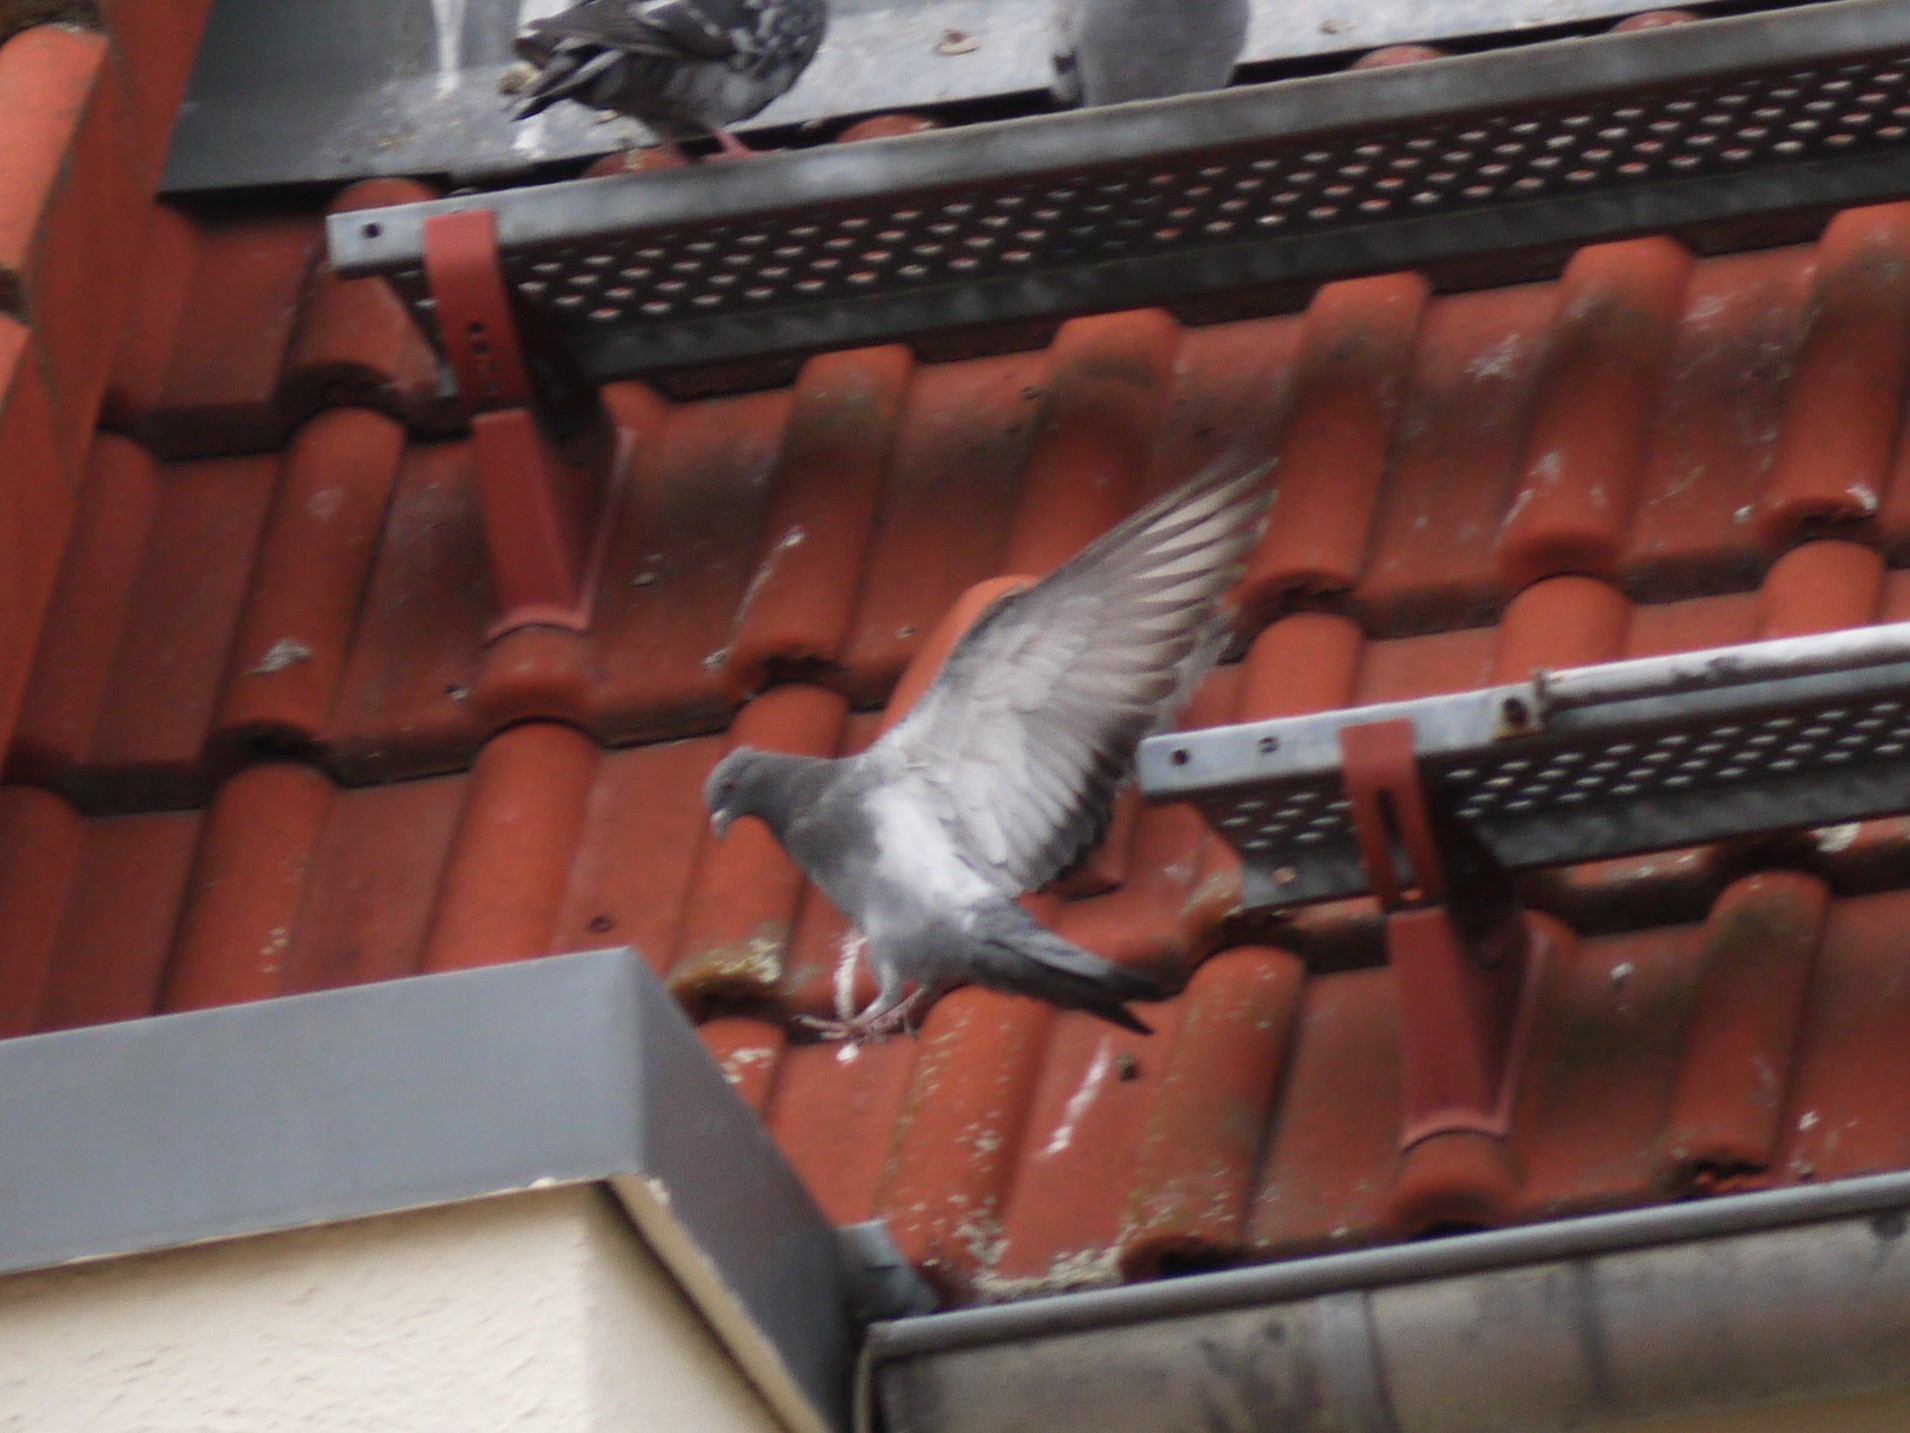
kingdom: Animalia
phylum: Chordata
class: Aves
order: Columbiformes
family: Columbidae
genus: Columba
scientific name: Columba livia
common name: Rock pigeon
